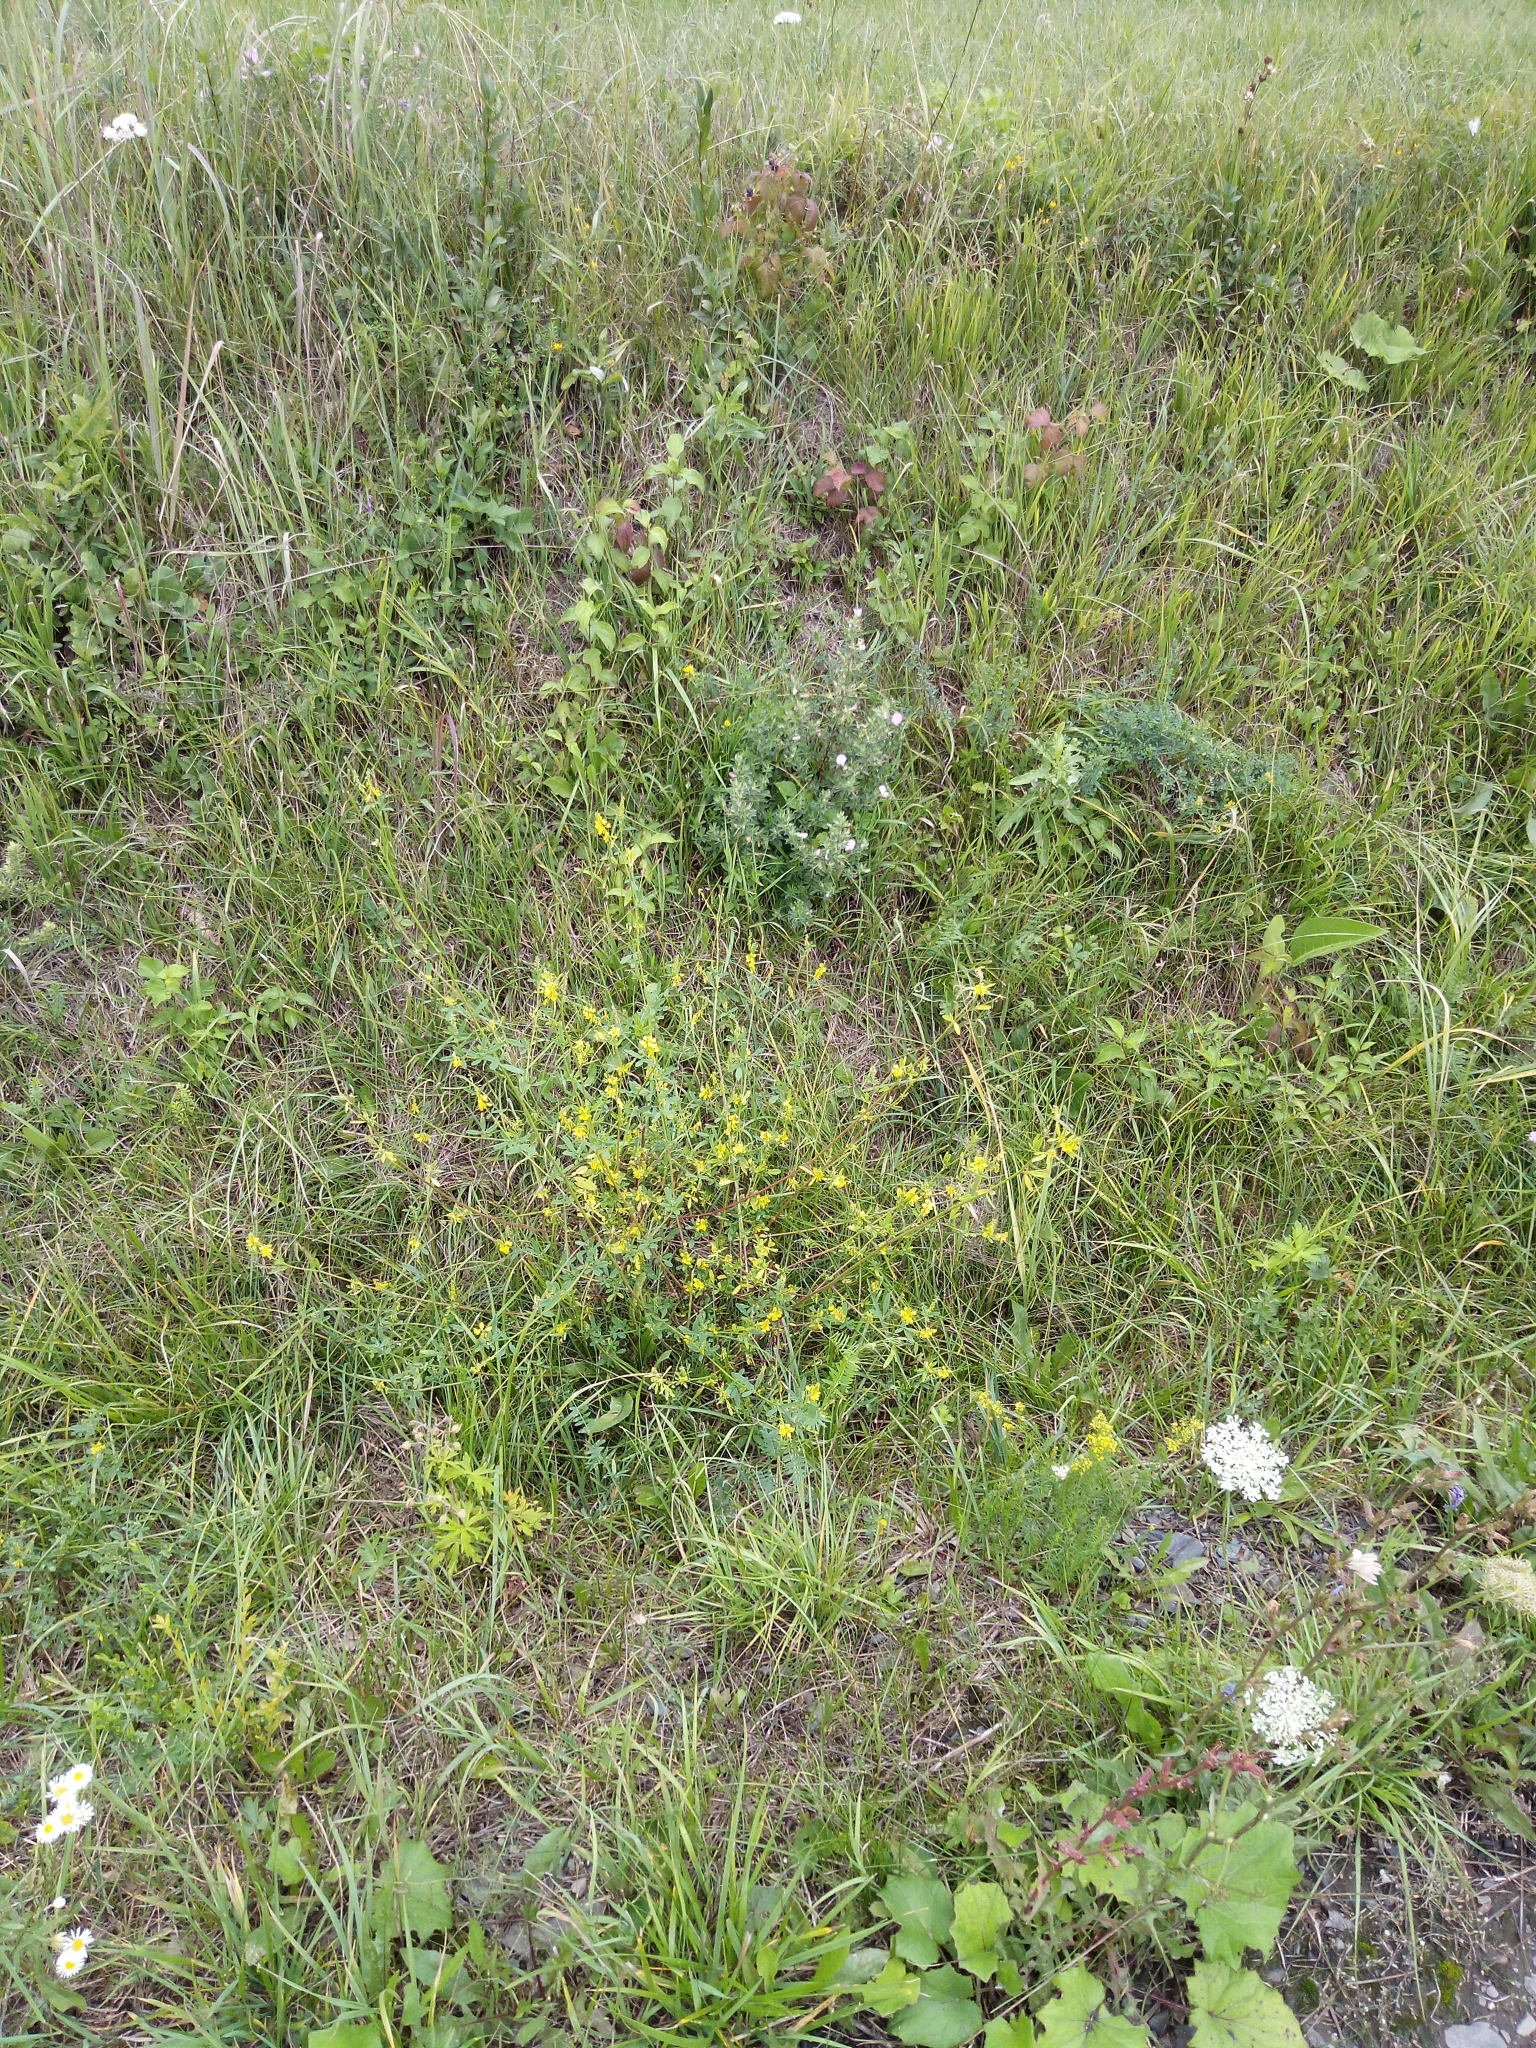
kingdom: Plantae
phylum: Tracheophyta
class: Magnoliopsida
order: Fabales
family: Fabaceae
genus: Melilotus
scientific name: Melilotus officinalis
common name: Sweetclover
